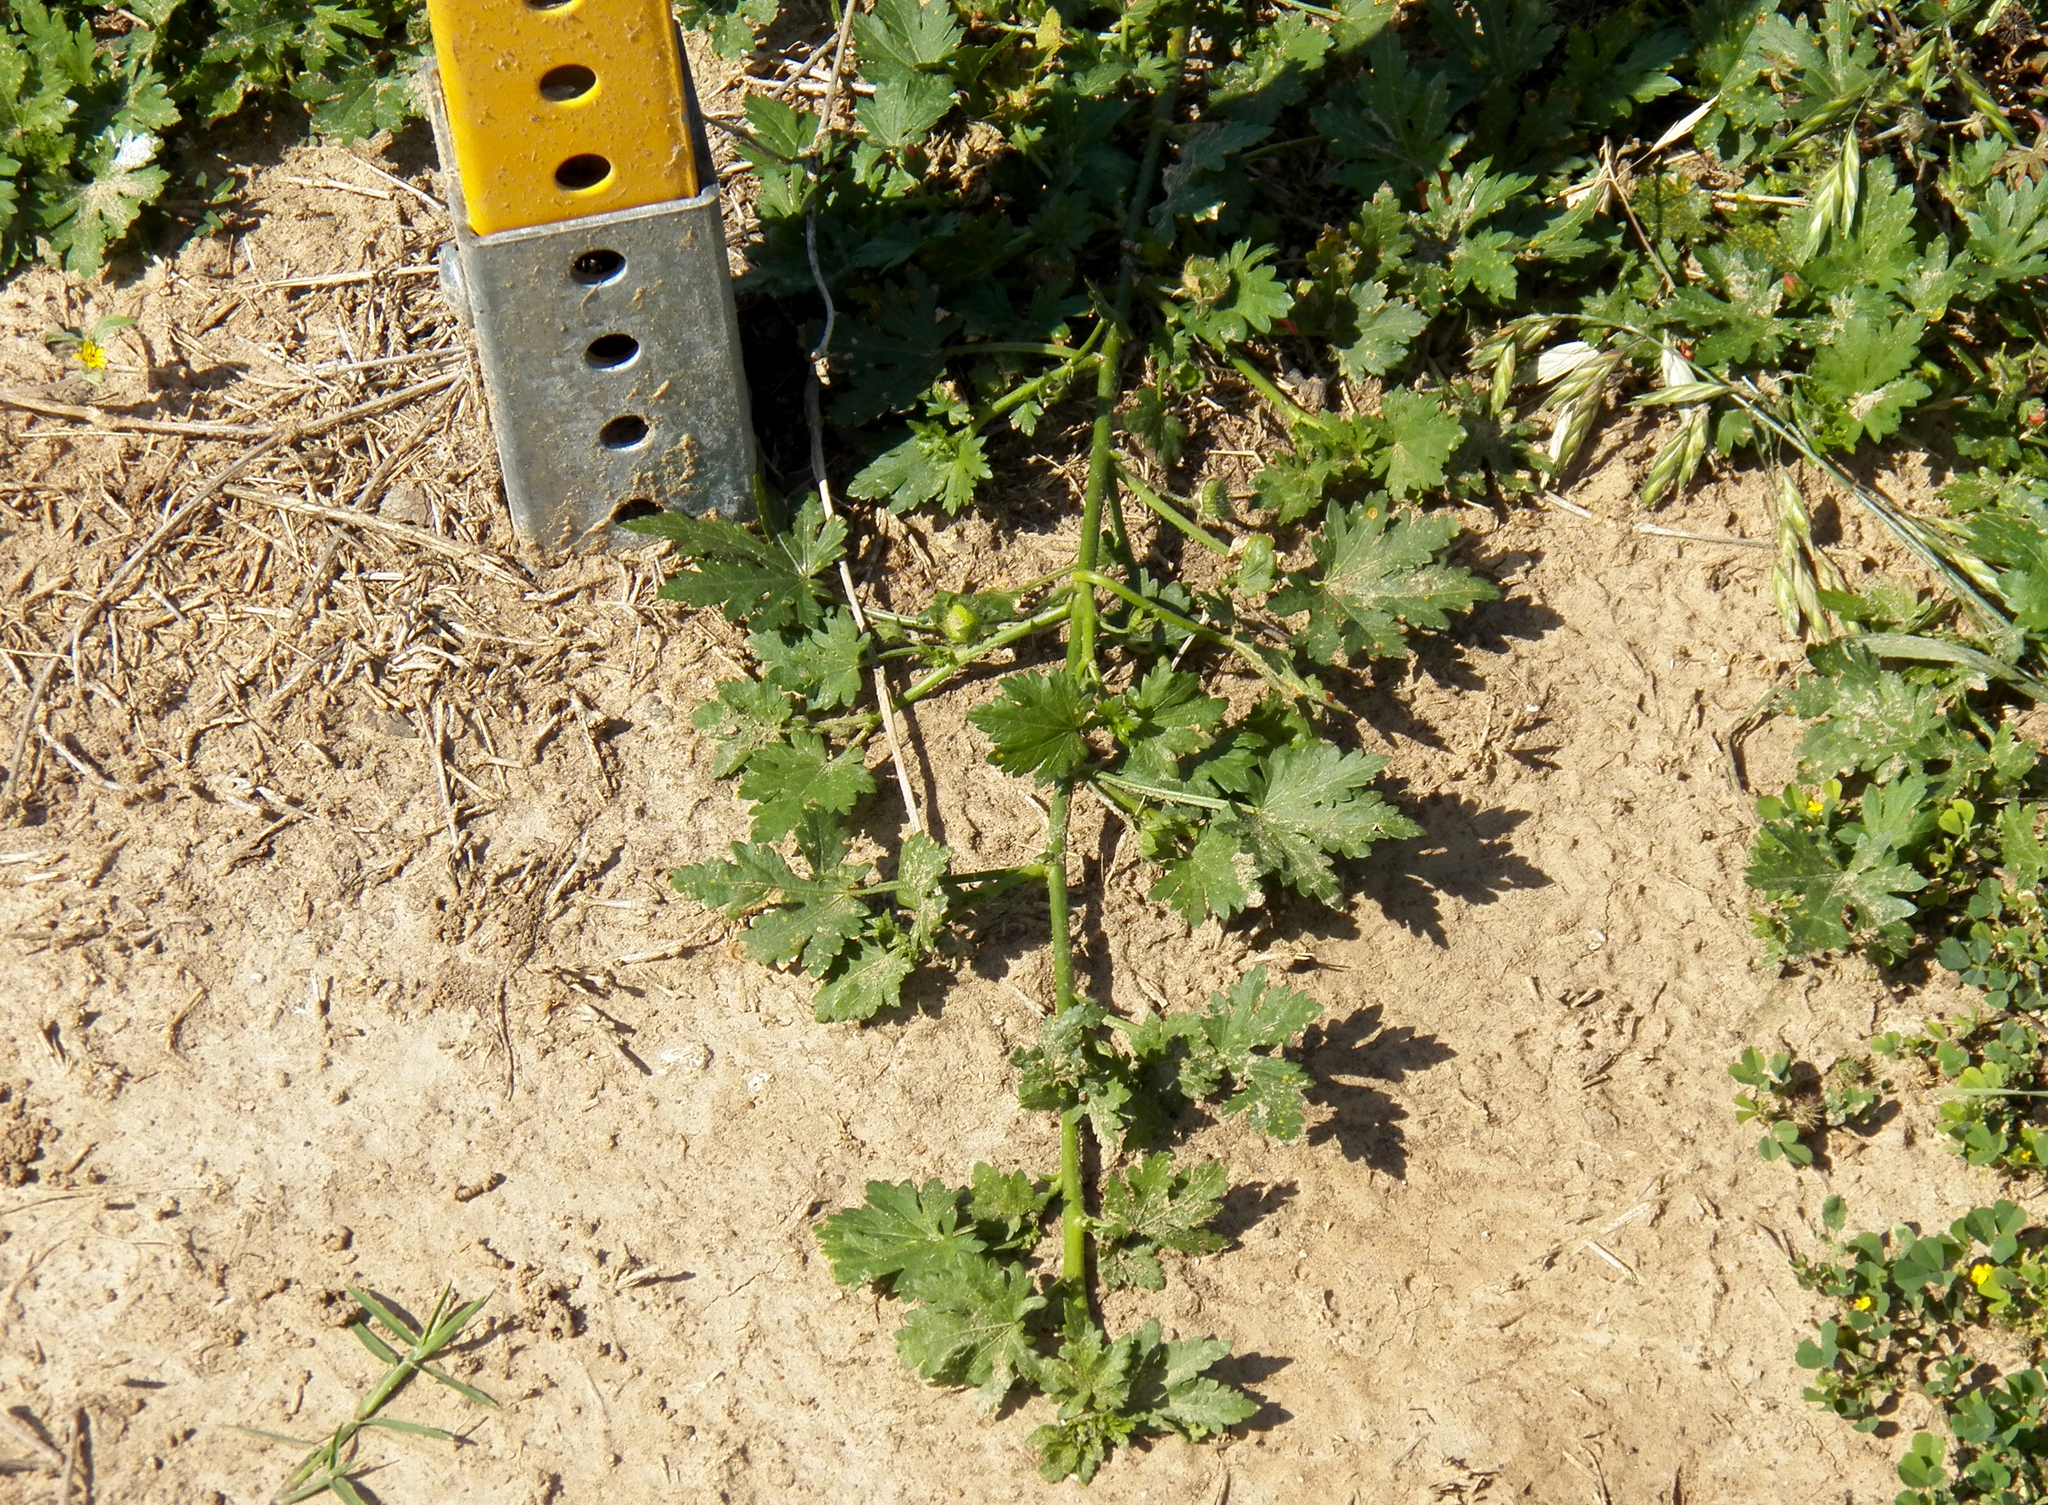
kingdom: Plantae
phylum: Tracheophyta
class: Magnoliopsida
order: Malvales
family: Malvaceae
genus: Modiola
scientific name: Modiola caroliniana
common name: Carolina bristlemallow
